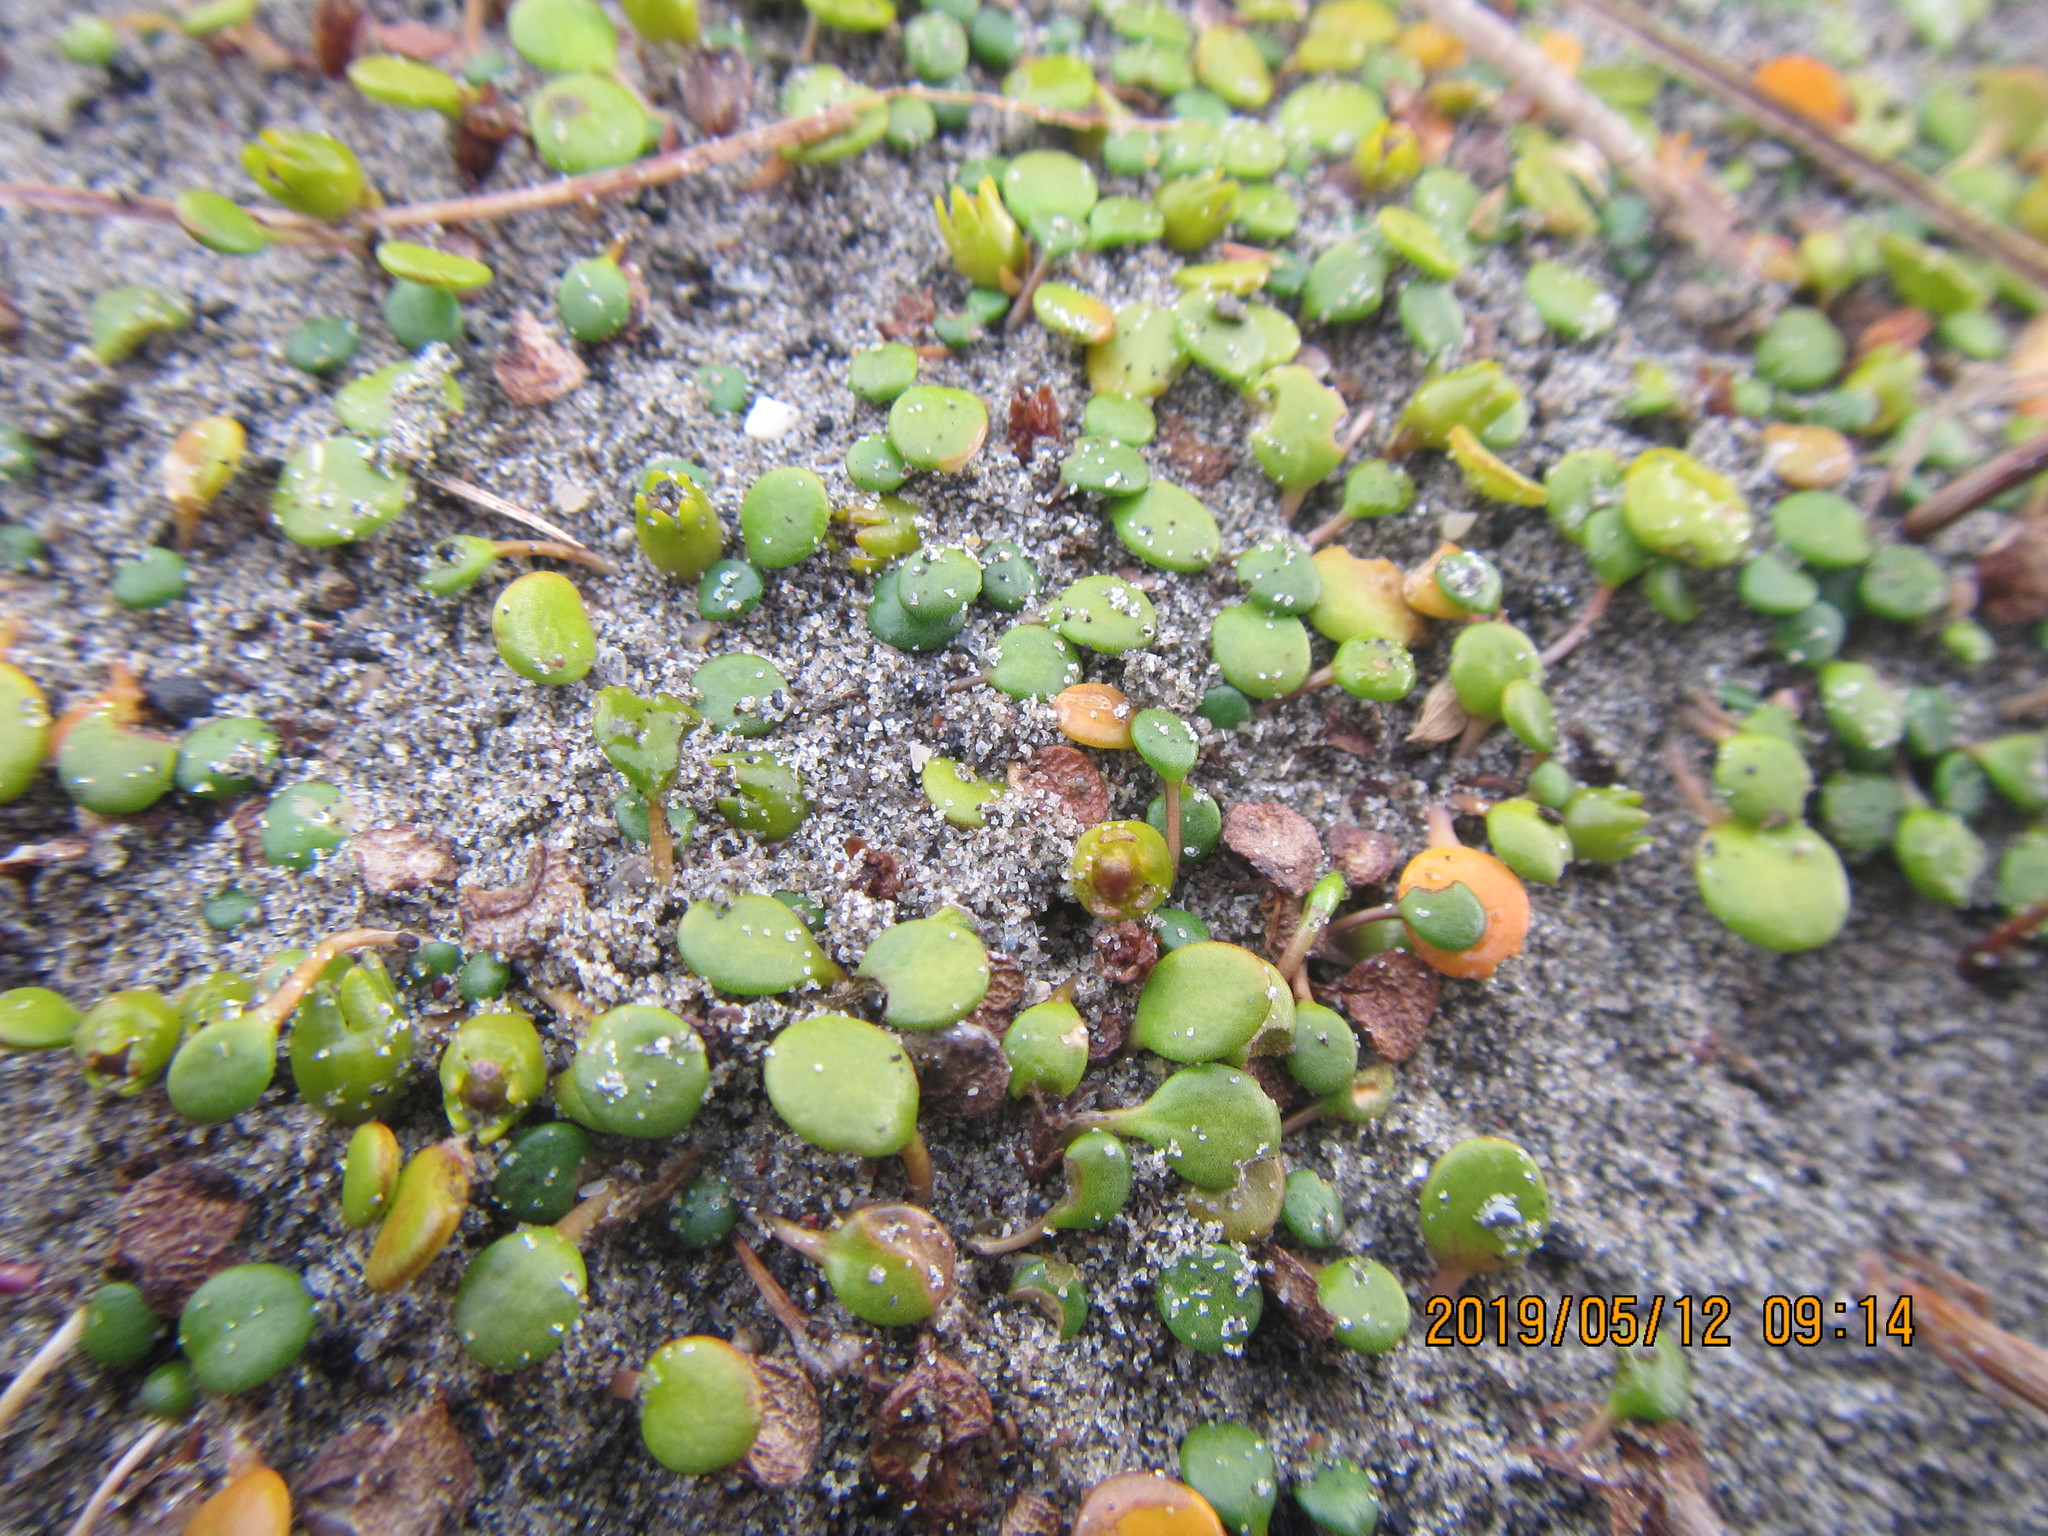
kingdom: Plantae
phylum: Tracheophyta
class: Magnoliopsida
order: Asterales
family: Goodeniaceae
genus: Goodenia
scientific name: Goodenia heenanii
